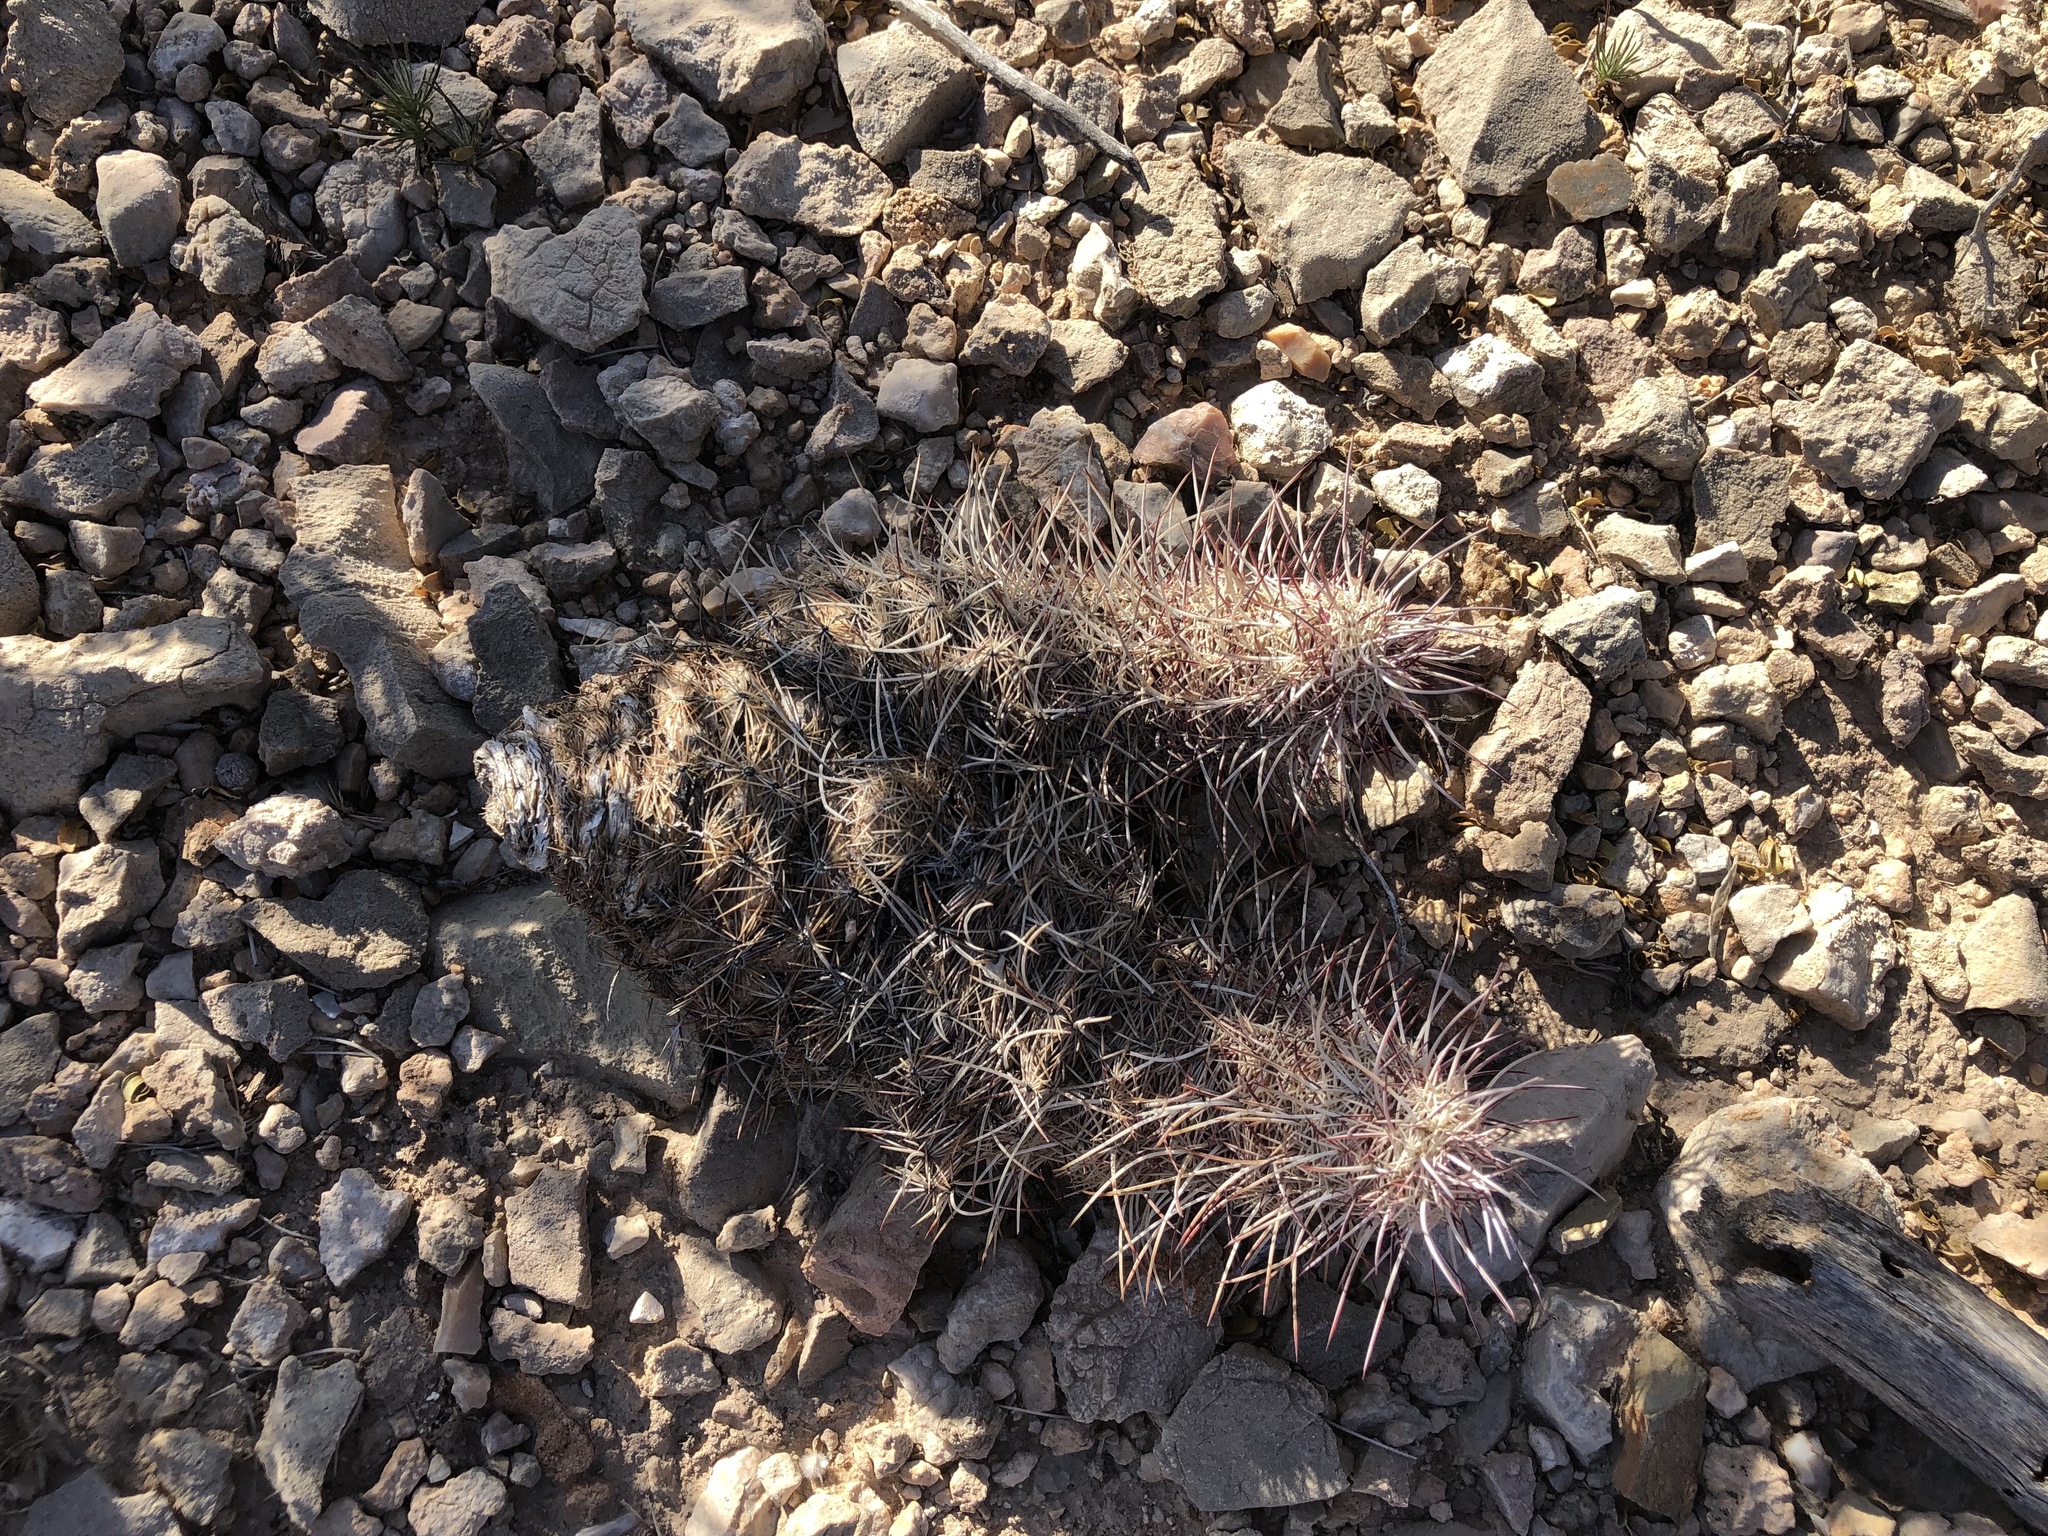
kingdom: Plantae
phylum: Tracheophyta
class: Magnoliopsida
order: Caryophyllales
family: Cactaceae
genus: Echinocereus
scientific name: Echinocereus viridiflorus
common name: Nylon hedgehog cactus
